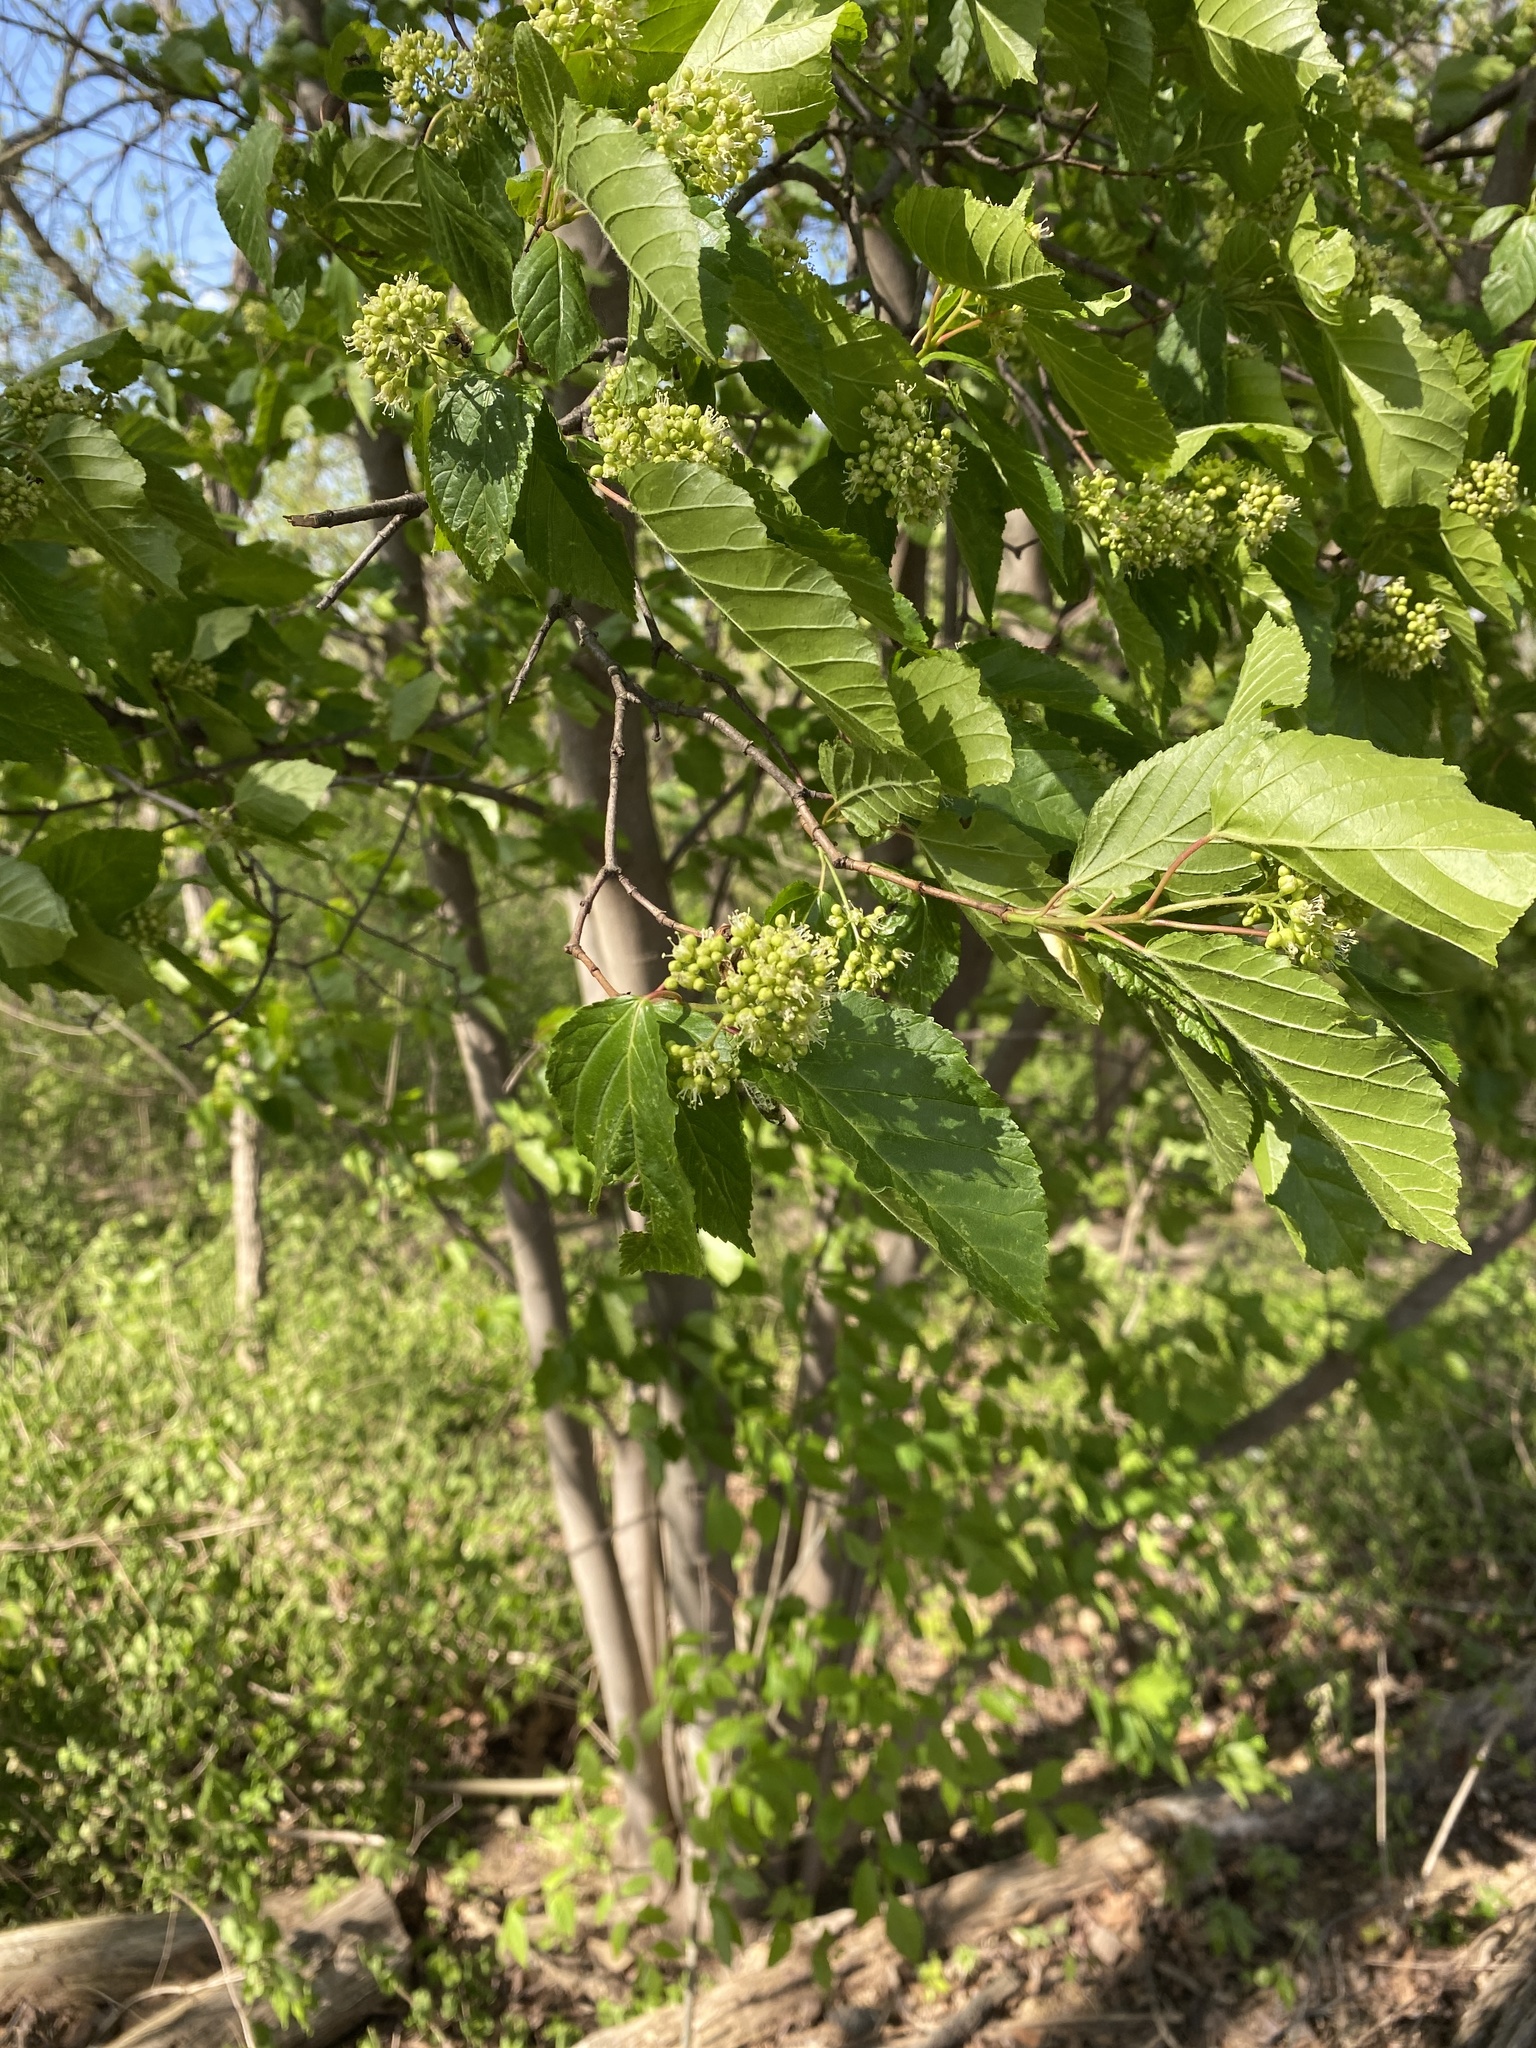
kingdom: Plantae
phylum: Tracheophyta
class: Magnoliopsida
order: Rosales
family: Moraceae
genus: Morus
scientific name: Morus alba
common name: White mulberry
